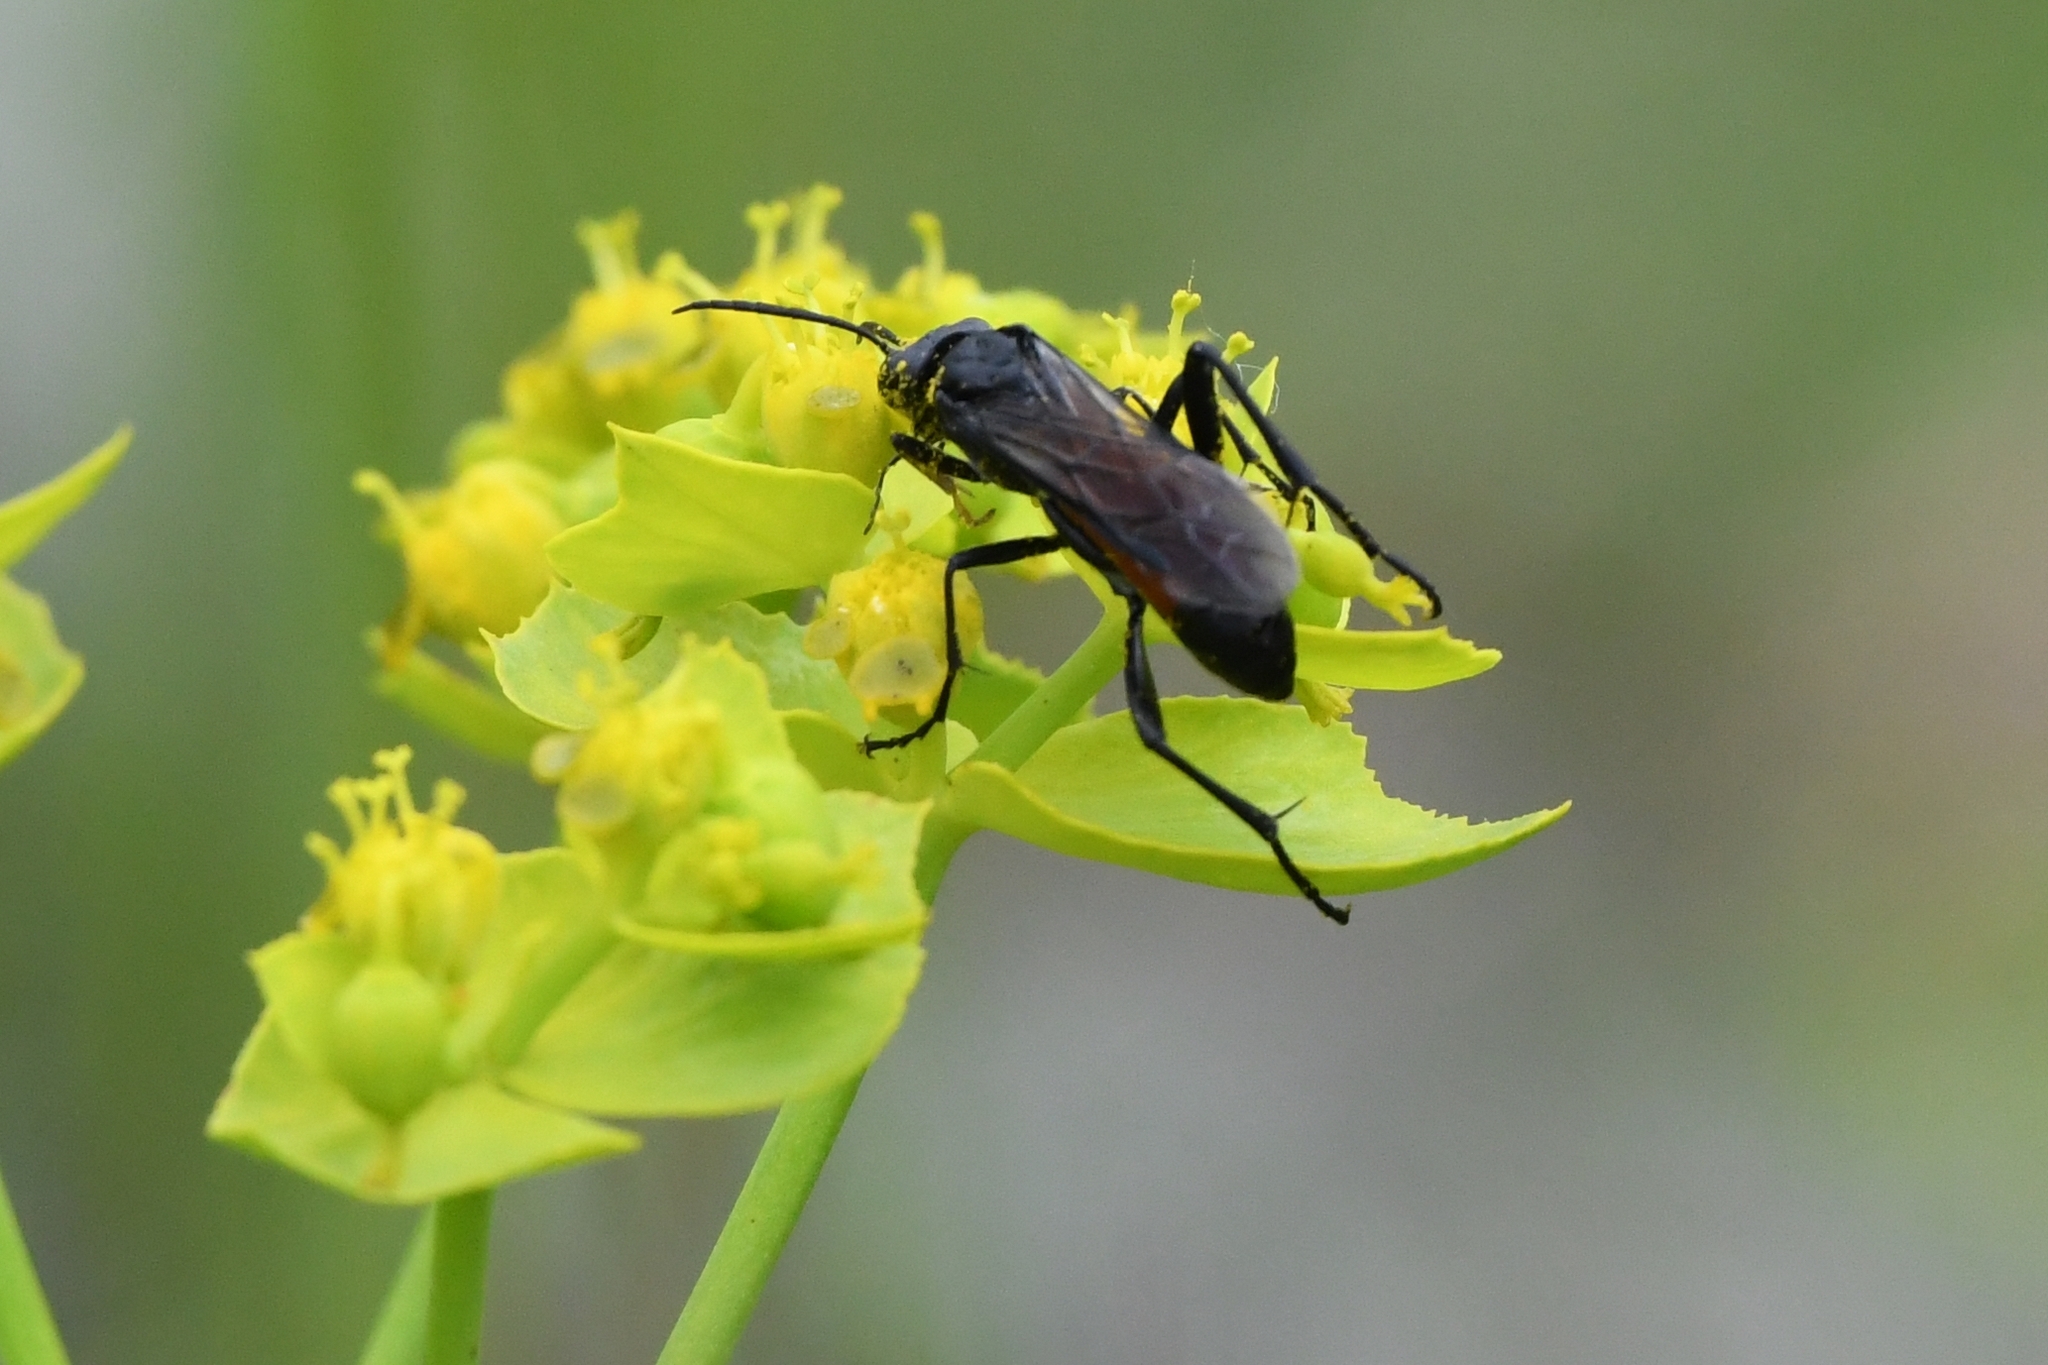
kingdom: Animalia
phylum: Arthropoda
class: Insecta
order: Hymenoptera
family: Tenthredinidae
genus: Macrophya
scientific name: Macrophya annulata
